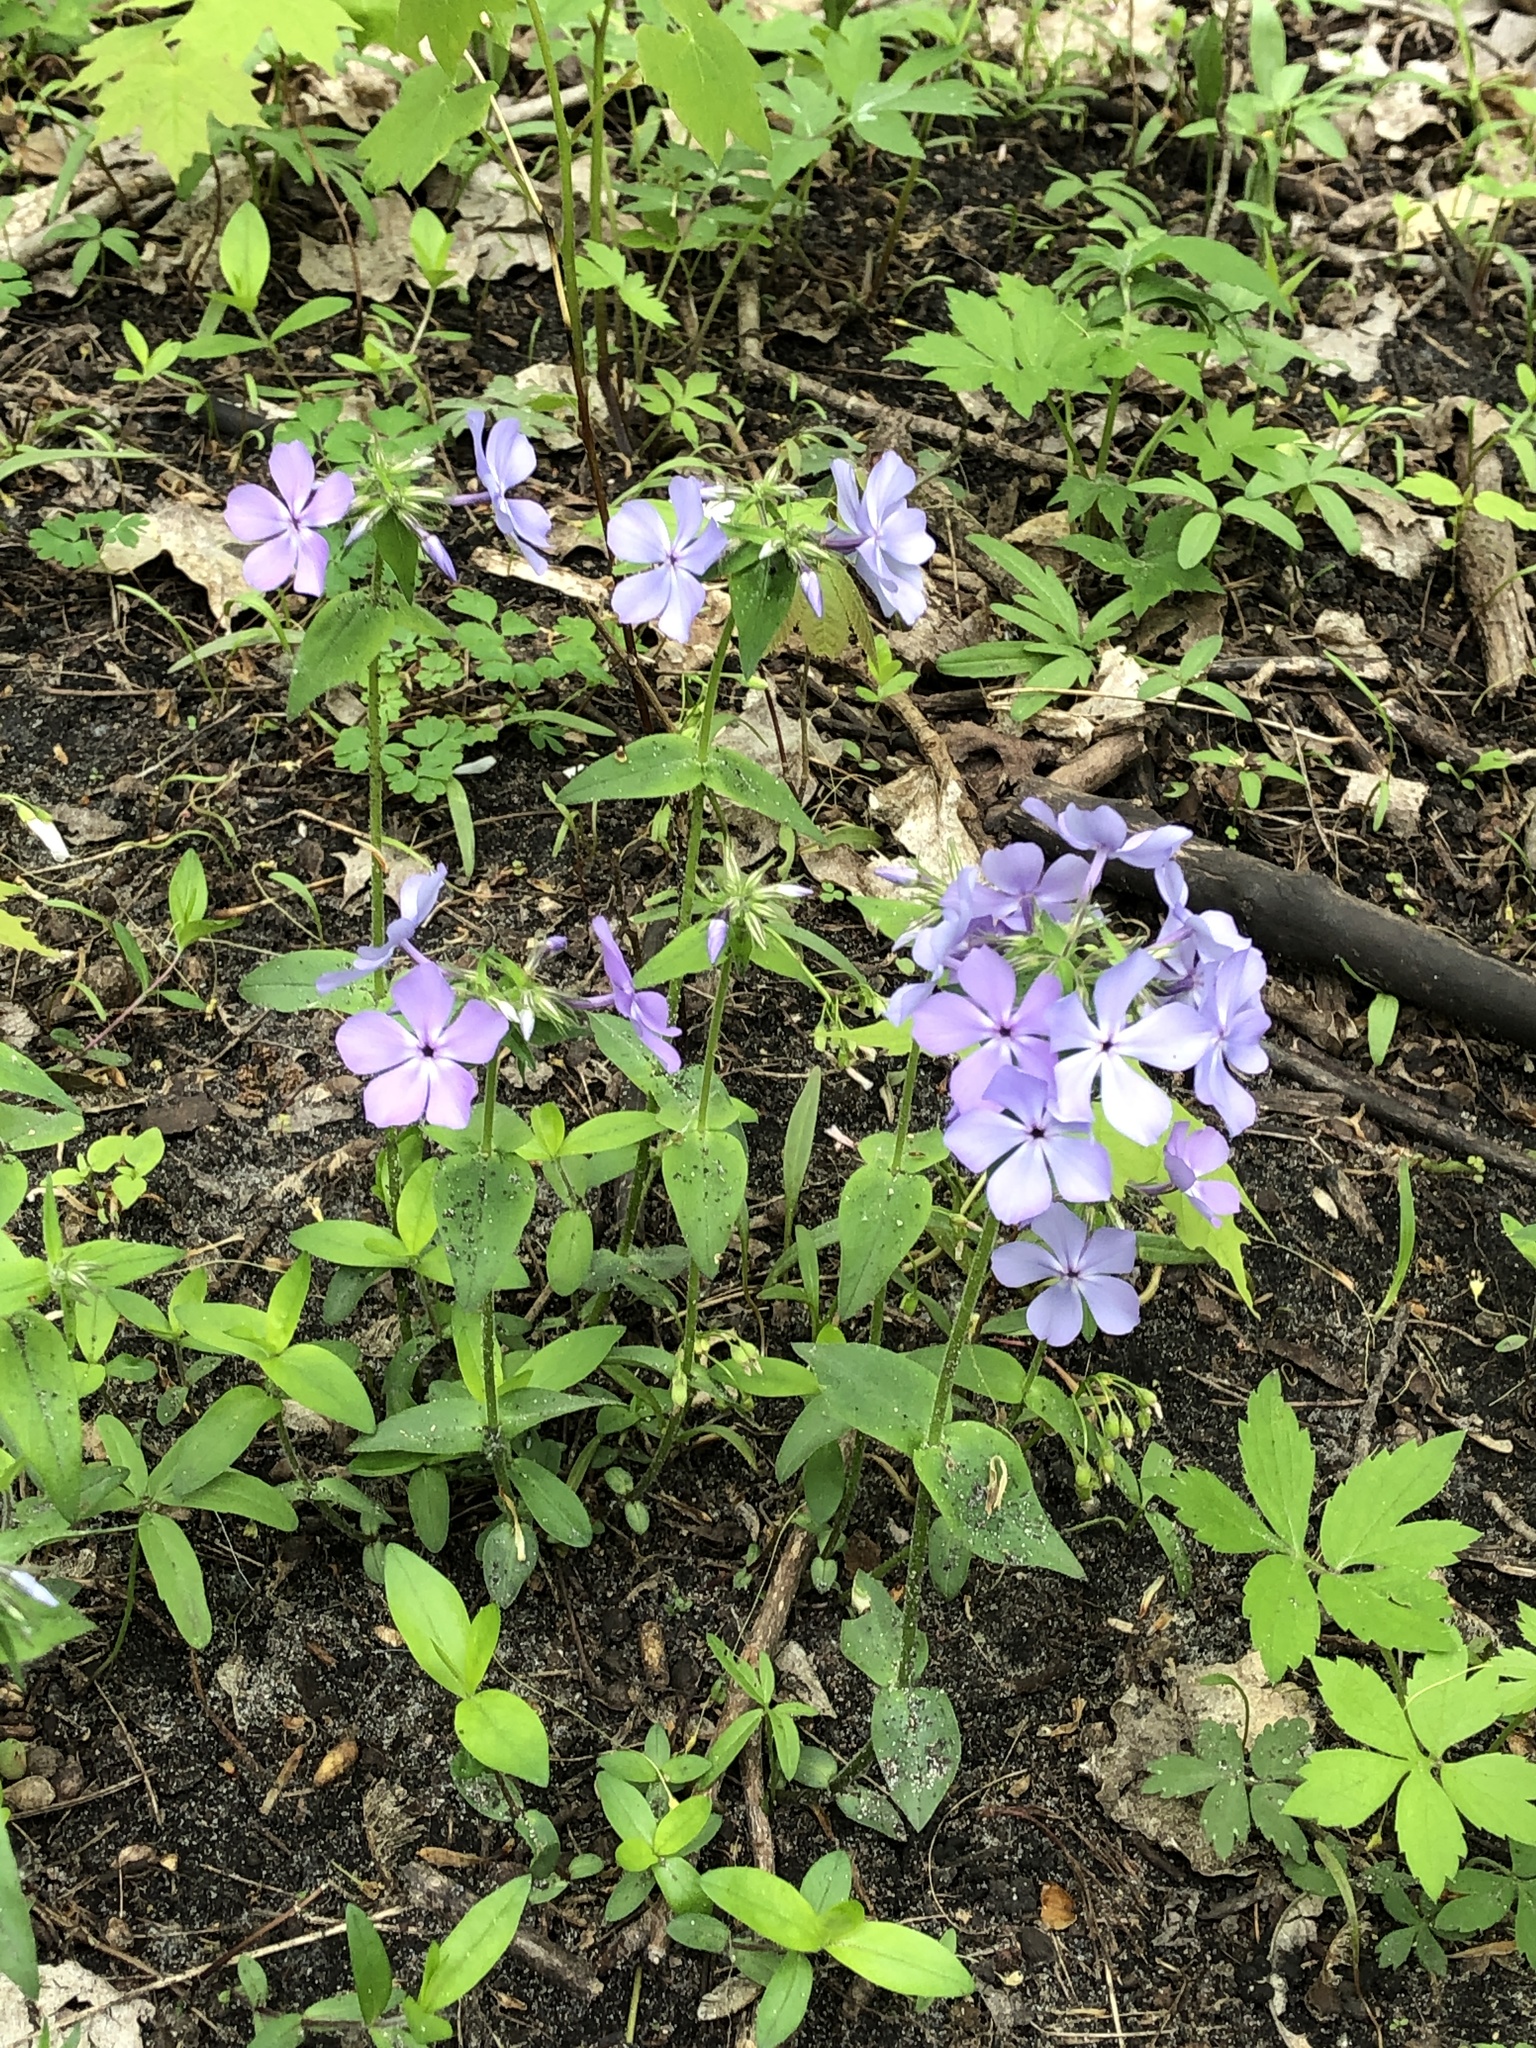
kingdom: Plantae
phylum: Tracheophyta
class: Magnoliopsida
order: Ericales
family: Polemoniaceae
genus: Phlox
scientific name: Phlox divaricata
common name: Blue phlox
